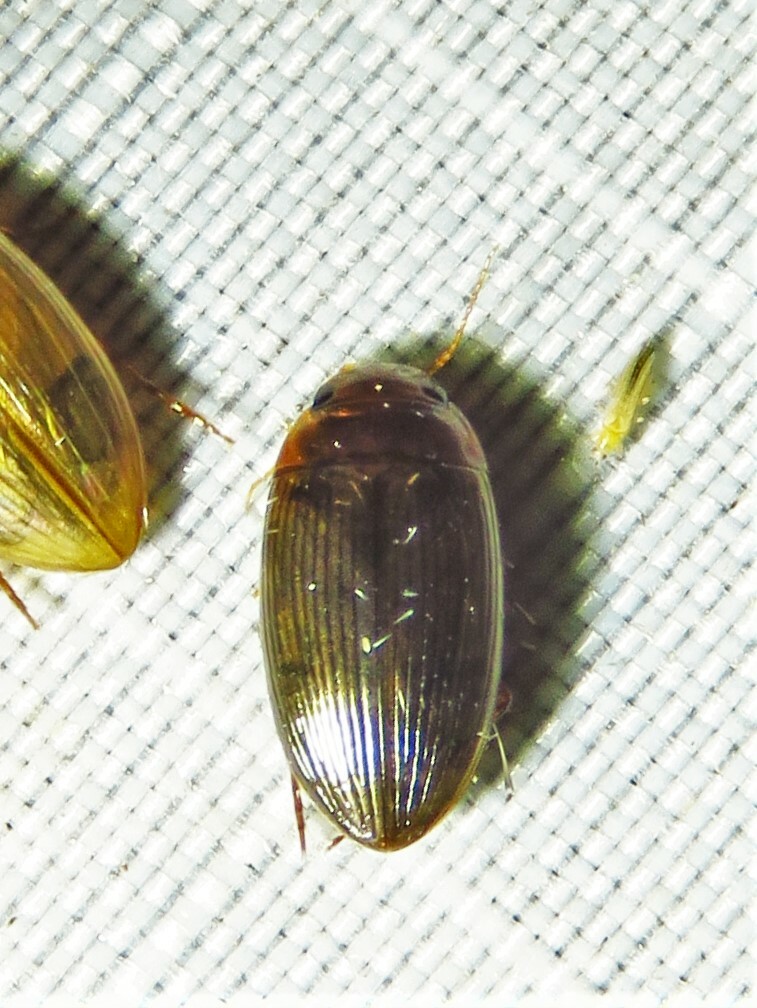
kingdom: Animalia
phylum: Arthropoda
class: Insecta
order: Coleoptera
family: Dytiscidae
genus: Copelatus
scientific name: Copelatus glyphicus
